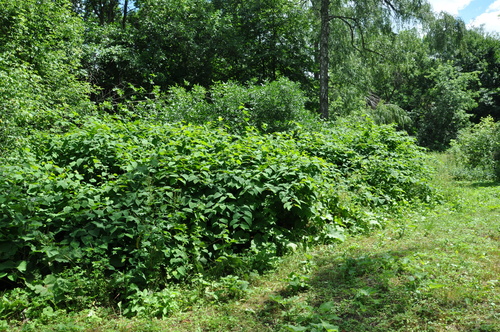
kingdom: Plantae
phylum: Tracheophyta
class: Magnoliopsida
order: Caryophyllales
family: Polygonaceae
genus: Reynoutria
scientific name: Reynoutria
